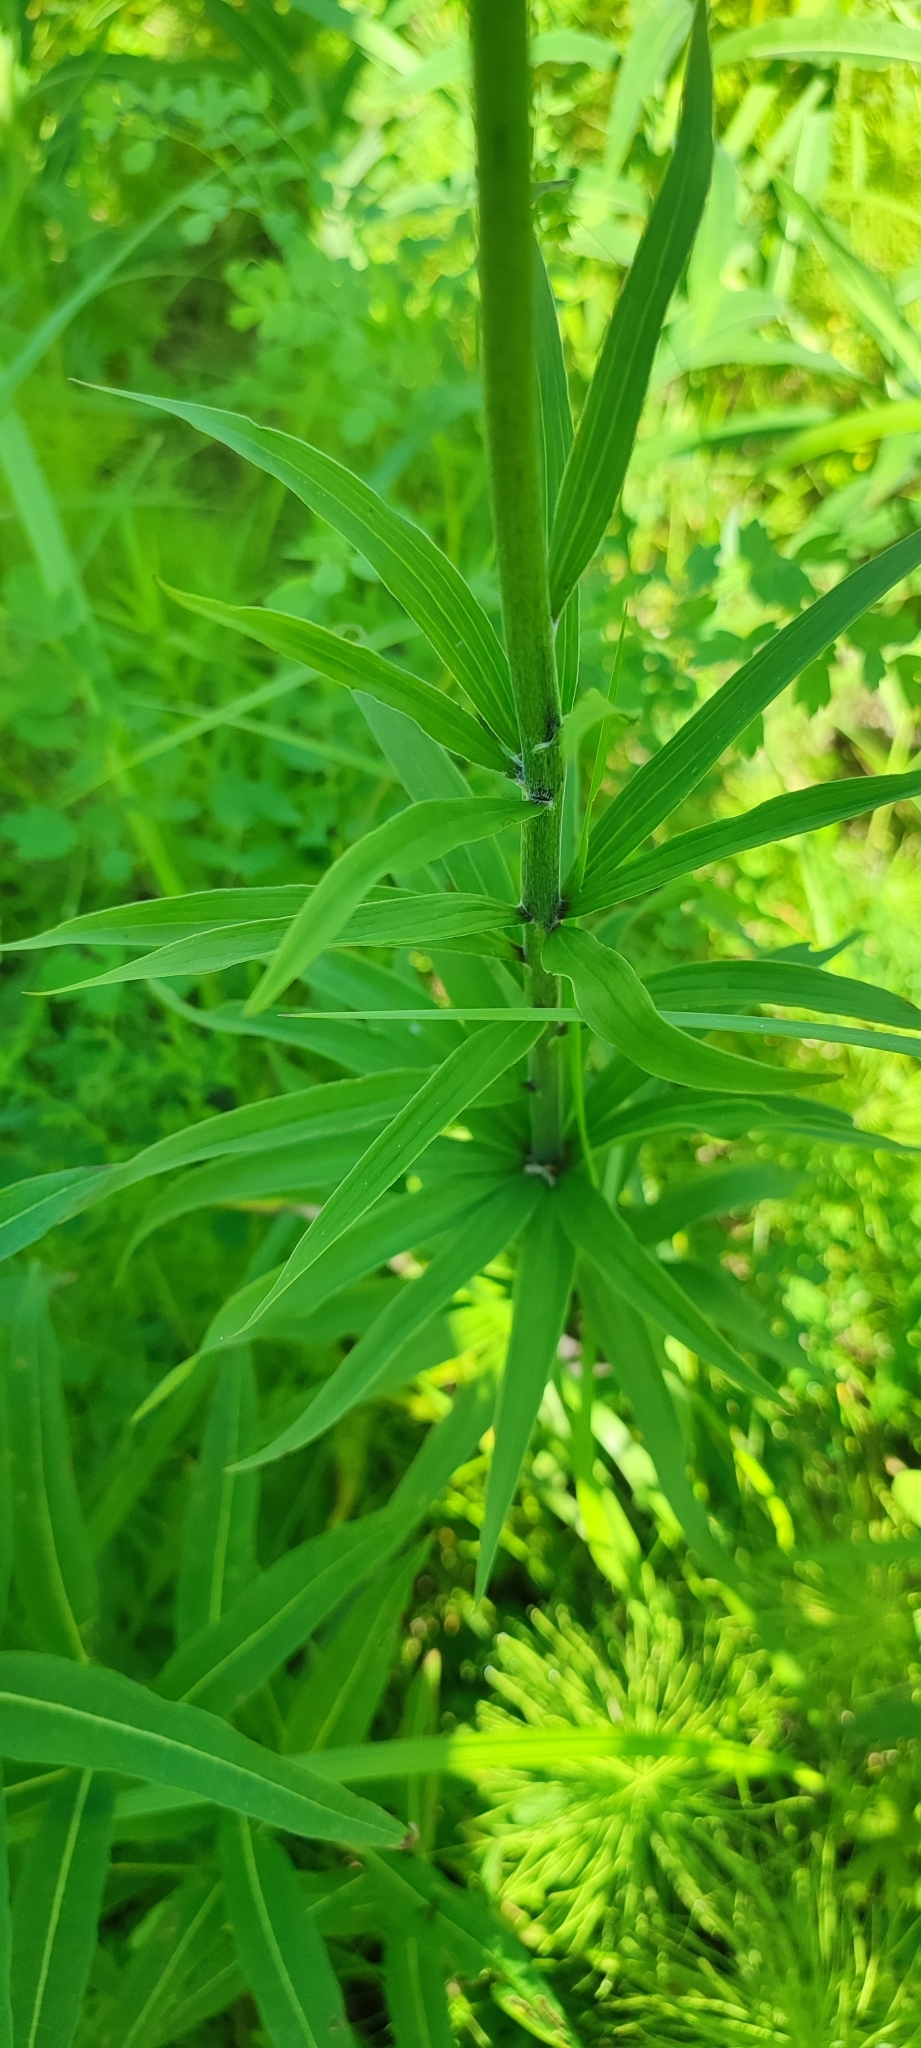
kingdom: Plantae
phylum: Tracheophyta
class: Liliopsida
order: Liliales
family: Liliaceae
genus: Lilium
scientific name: Lilium martagon
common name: Martagon lily
